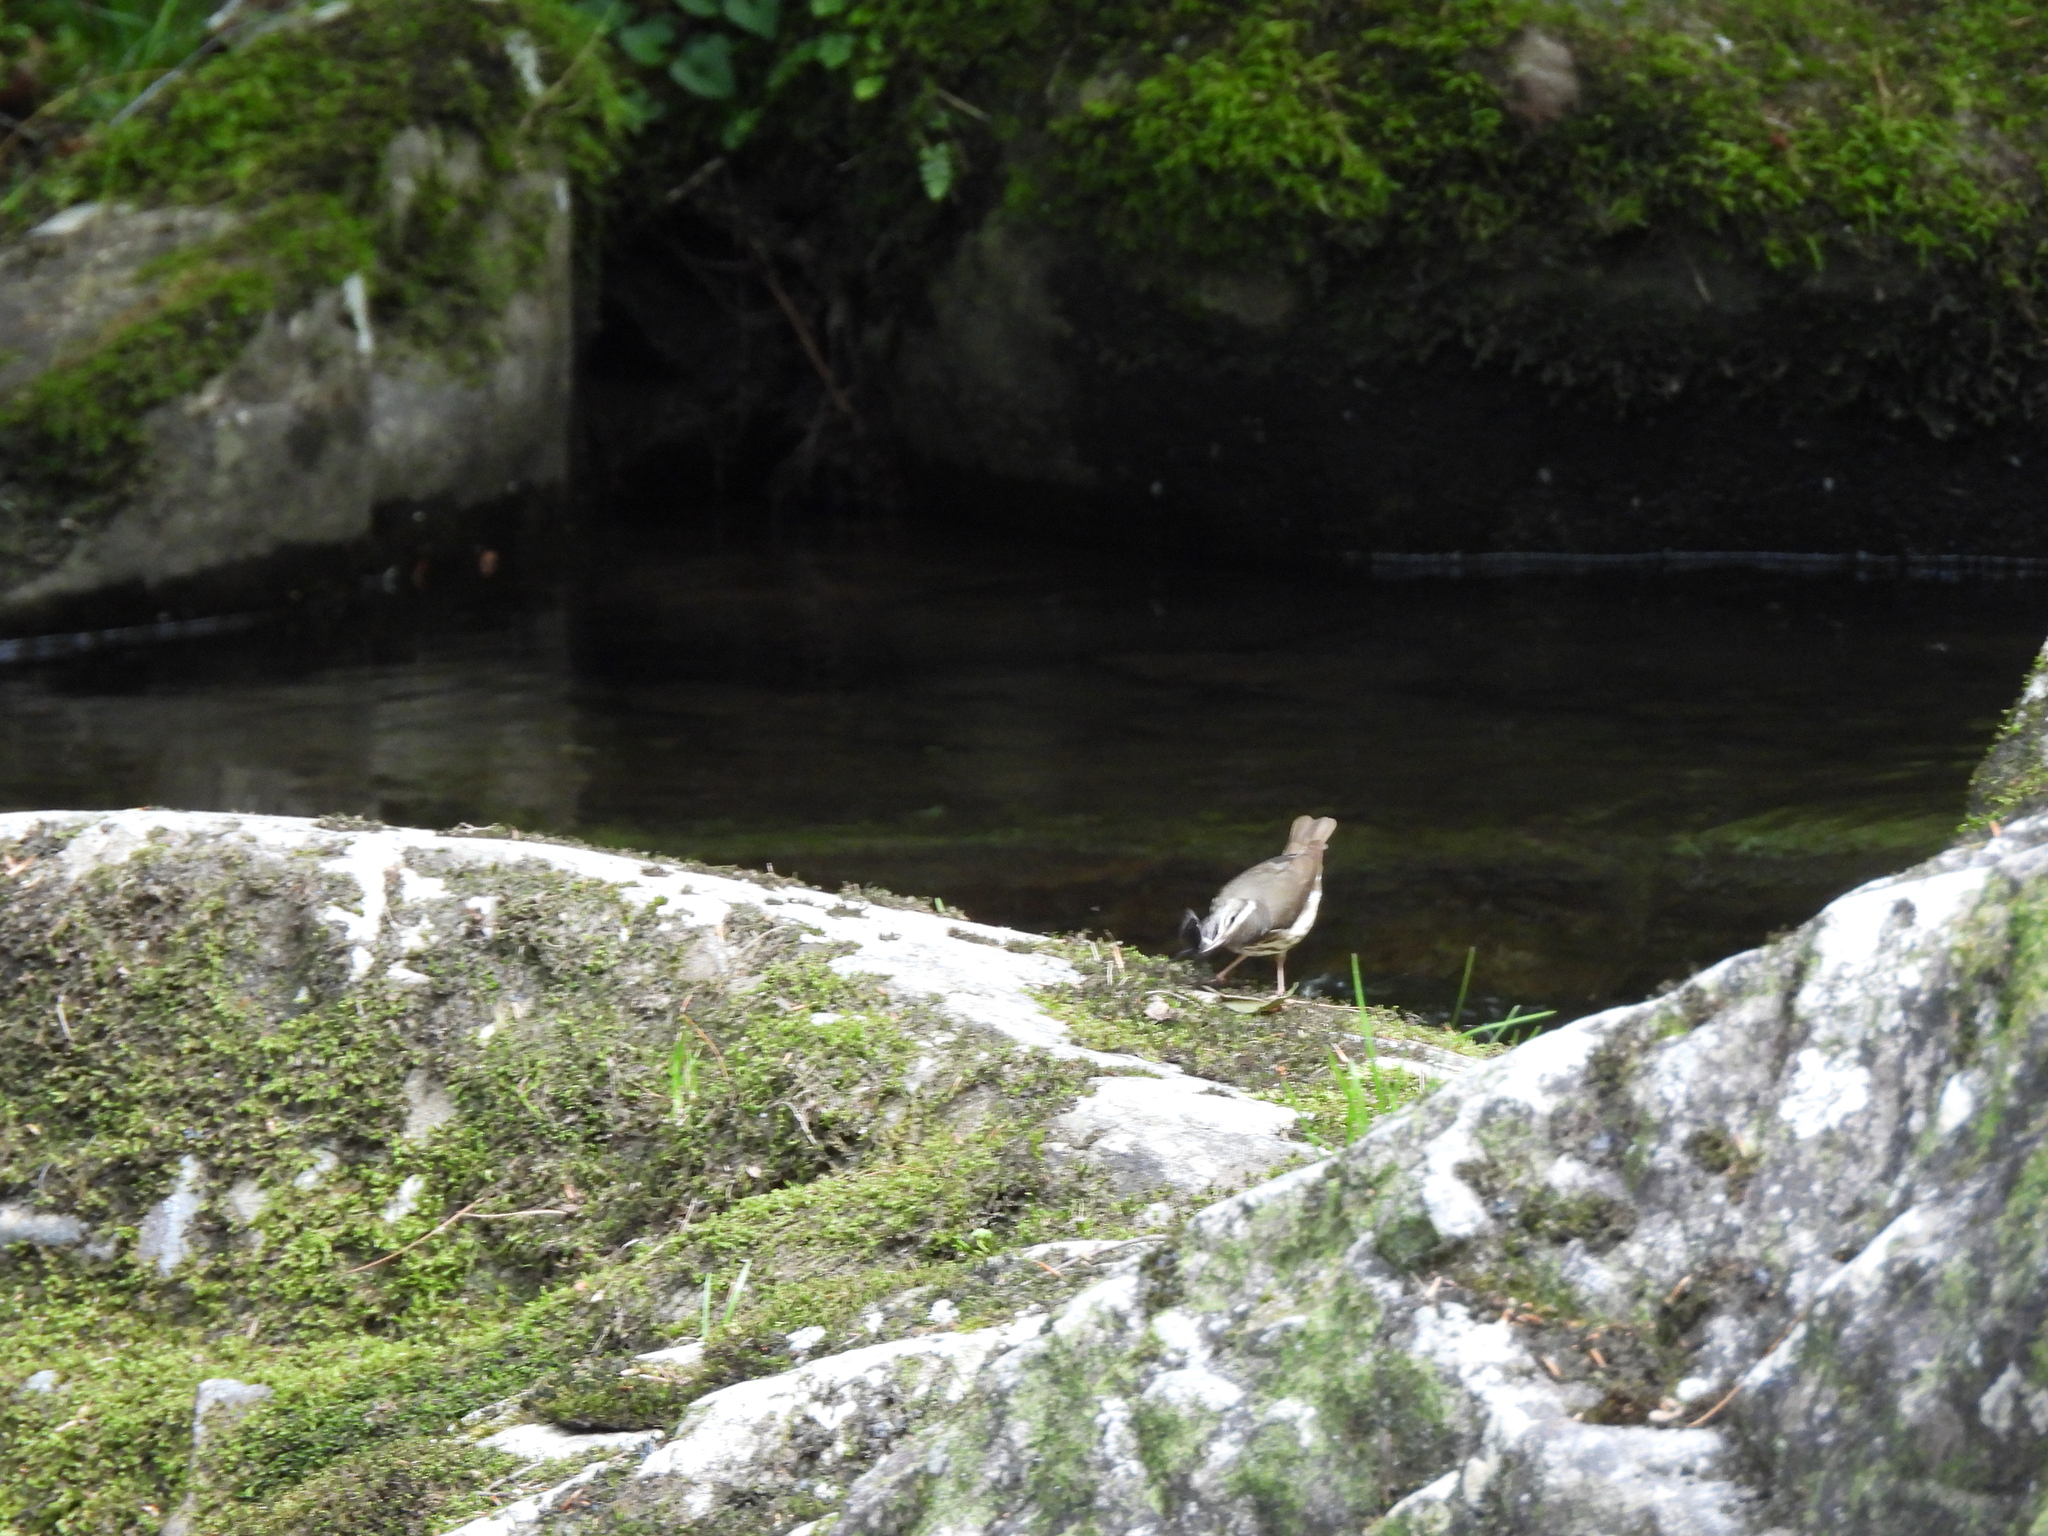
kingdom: Animalia
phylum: Arthropoda
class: Insecta
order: Megaloptera
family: Corydalidae
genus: Nigronia
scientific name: Nigronia serricornis
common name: Serrate dark fishfly
